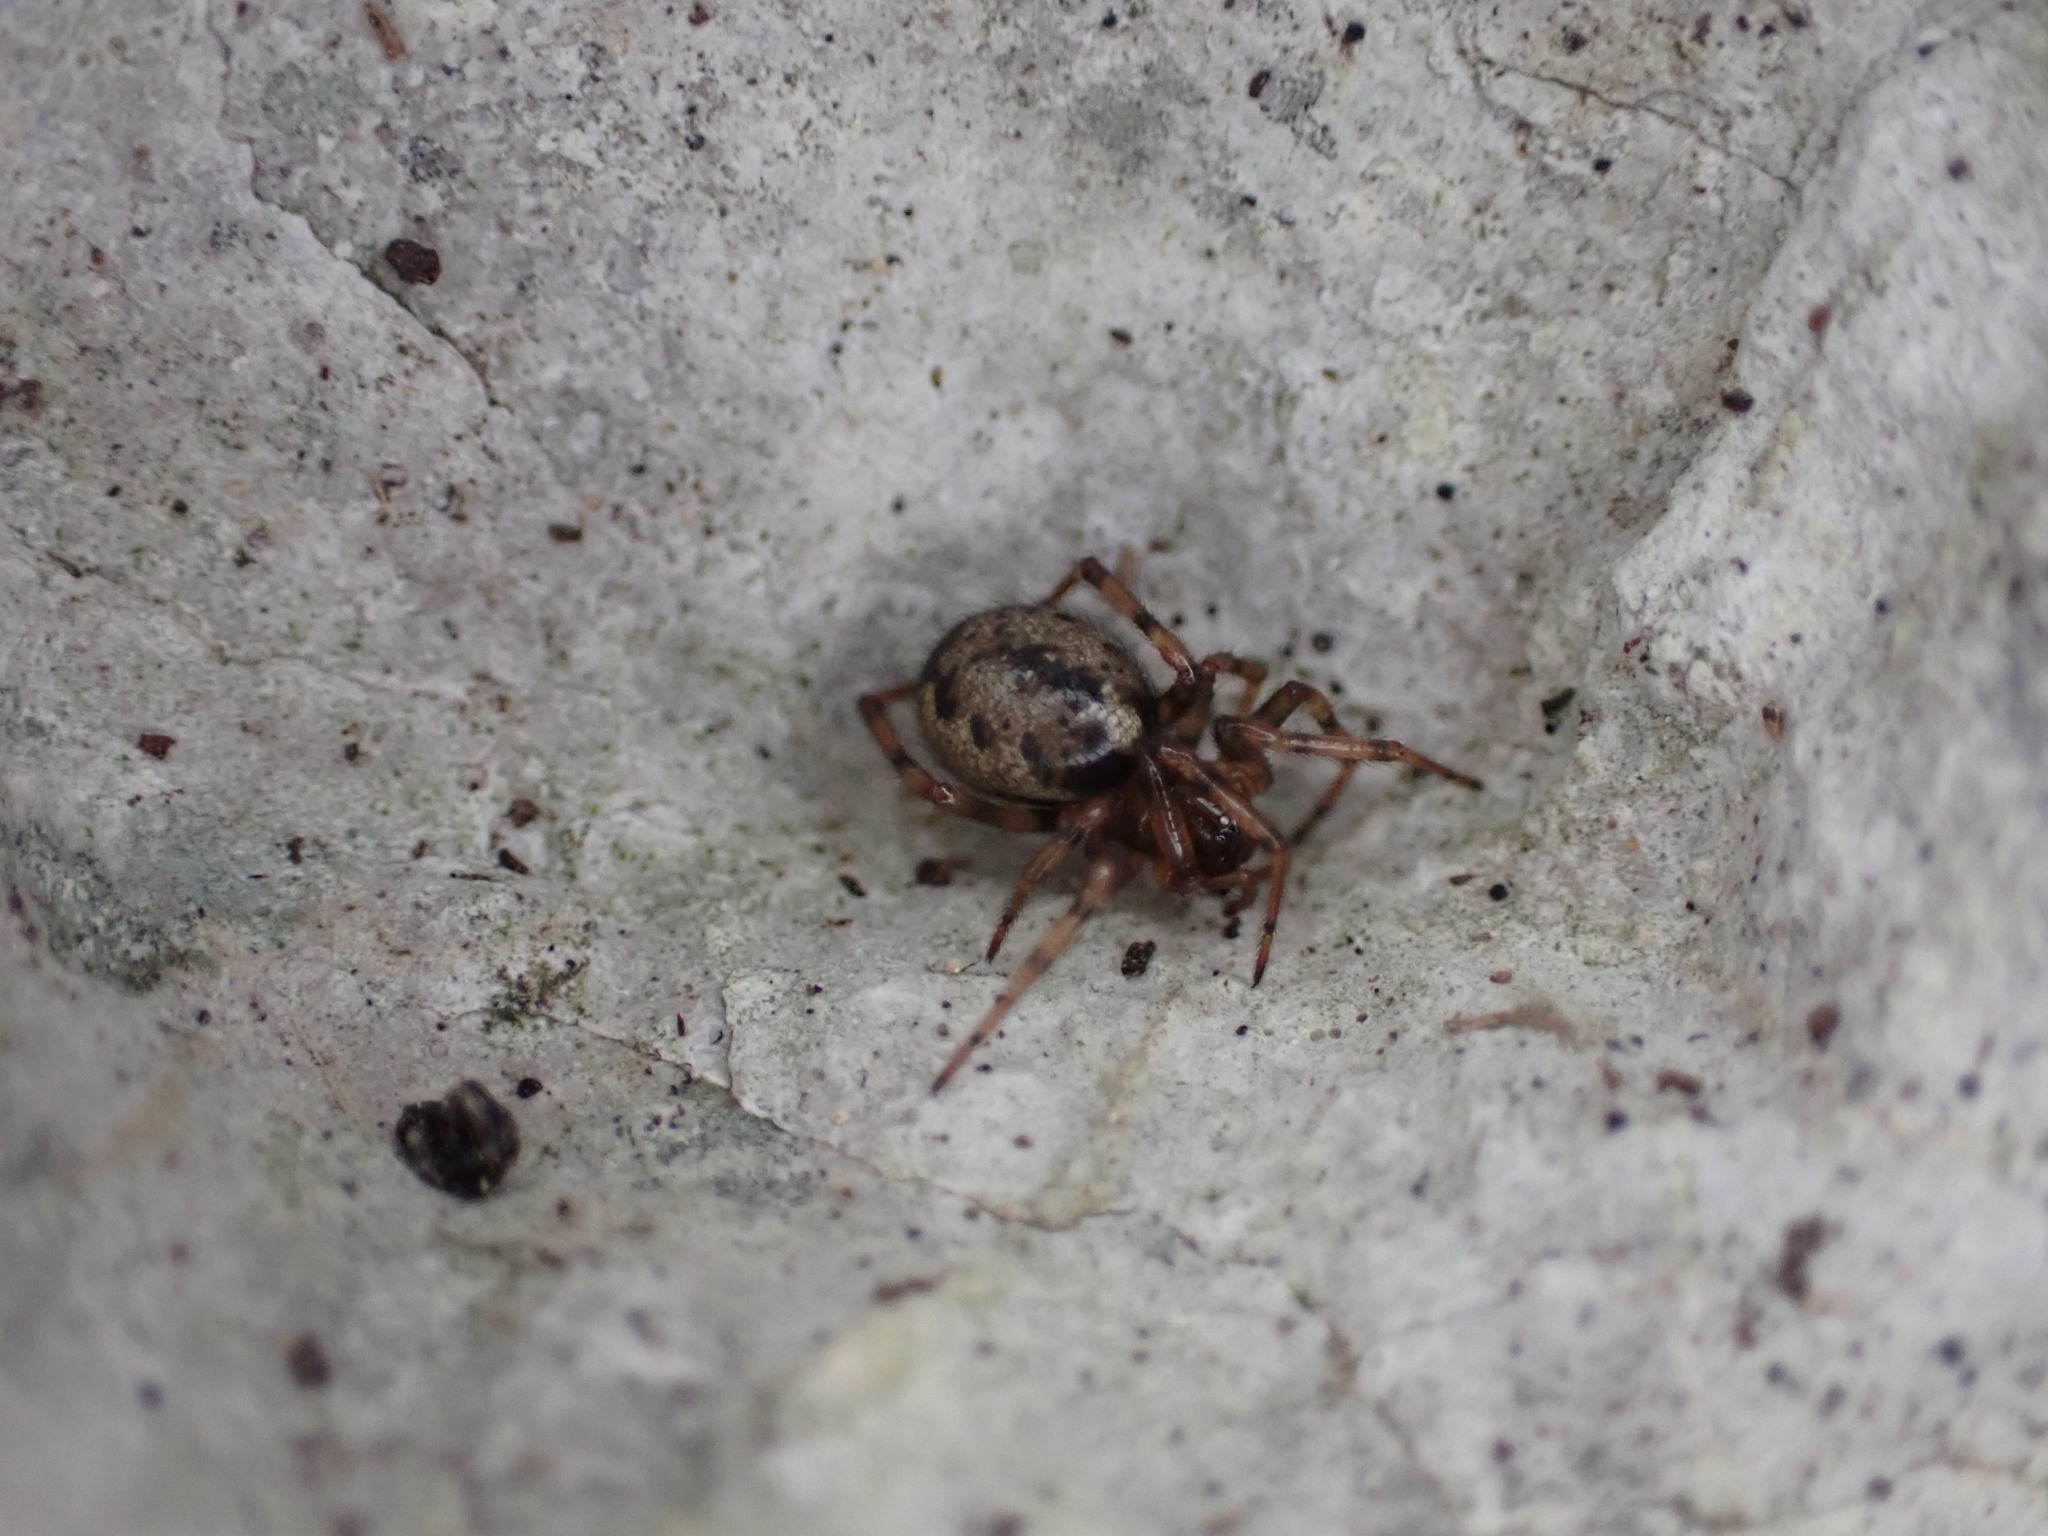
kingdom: Animalia
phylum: Arthropoda
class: Arachnida
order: Araneae
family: Theridiidae
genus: Enoplognatha
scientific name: Enoplognatha
